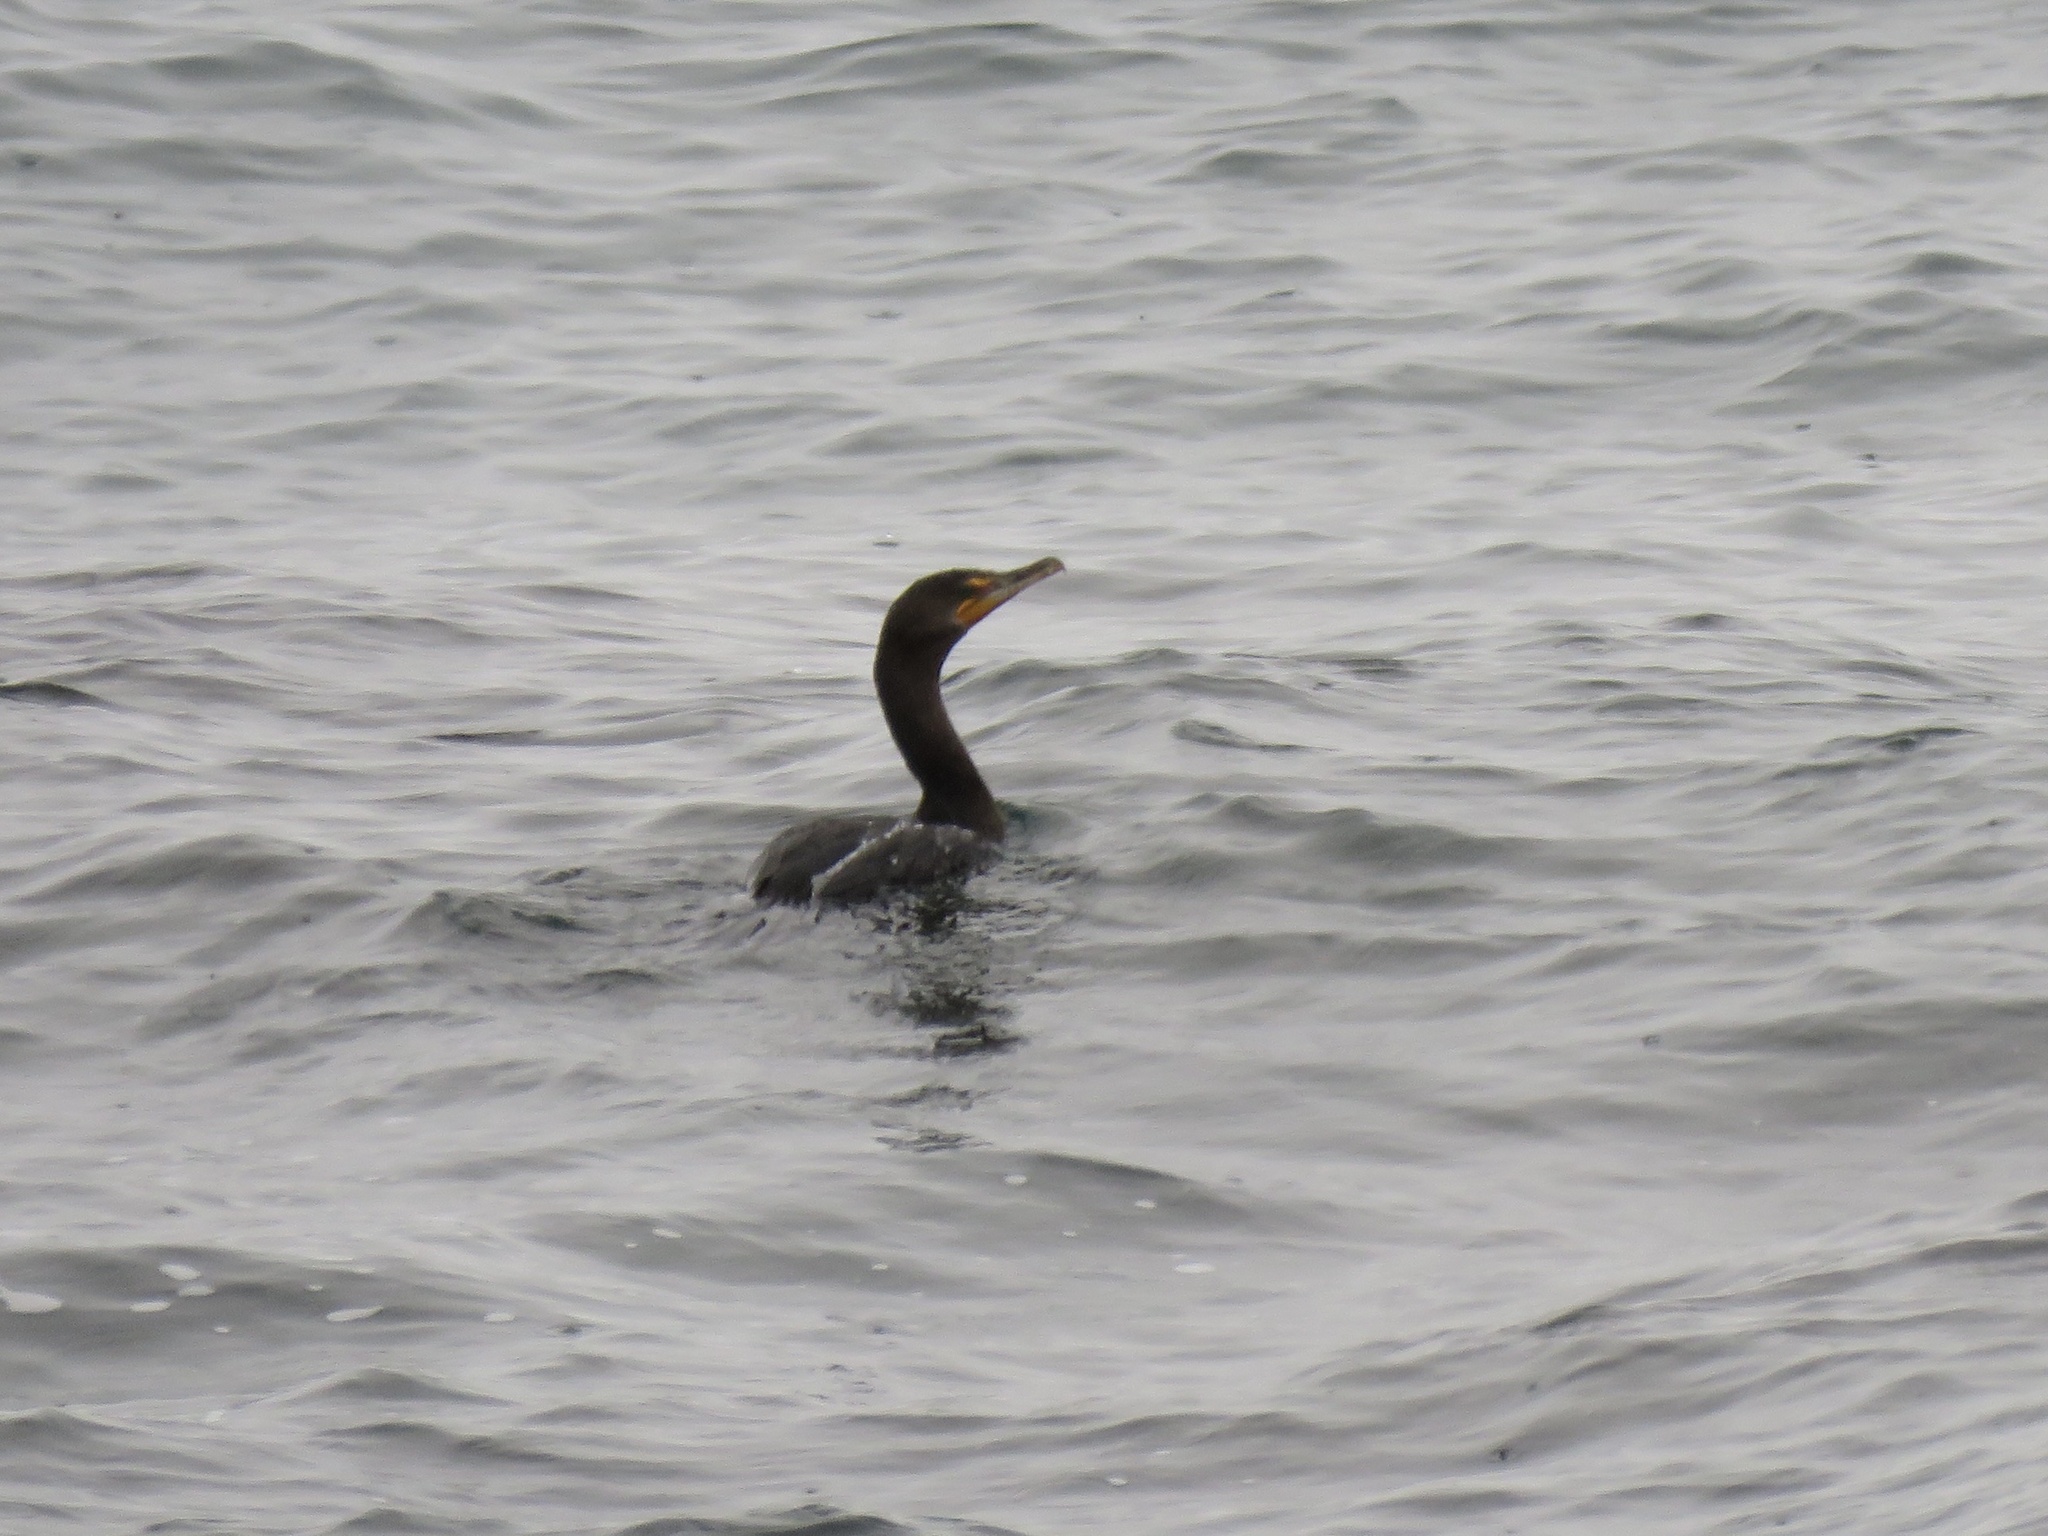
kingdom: Animalia
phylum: Chordata
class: Aves
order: Suliformes
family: Phalacrocoracidae
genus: Phalacrocorax
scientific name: Phalacrocorax auritus
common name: Double-crested cormorant
